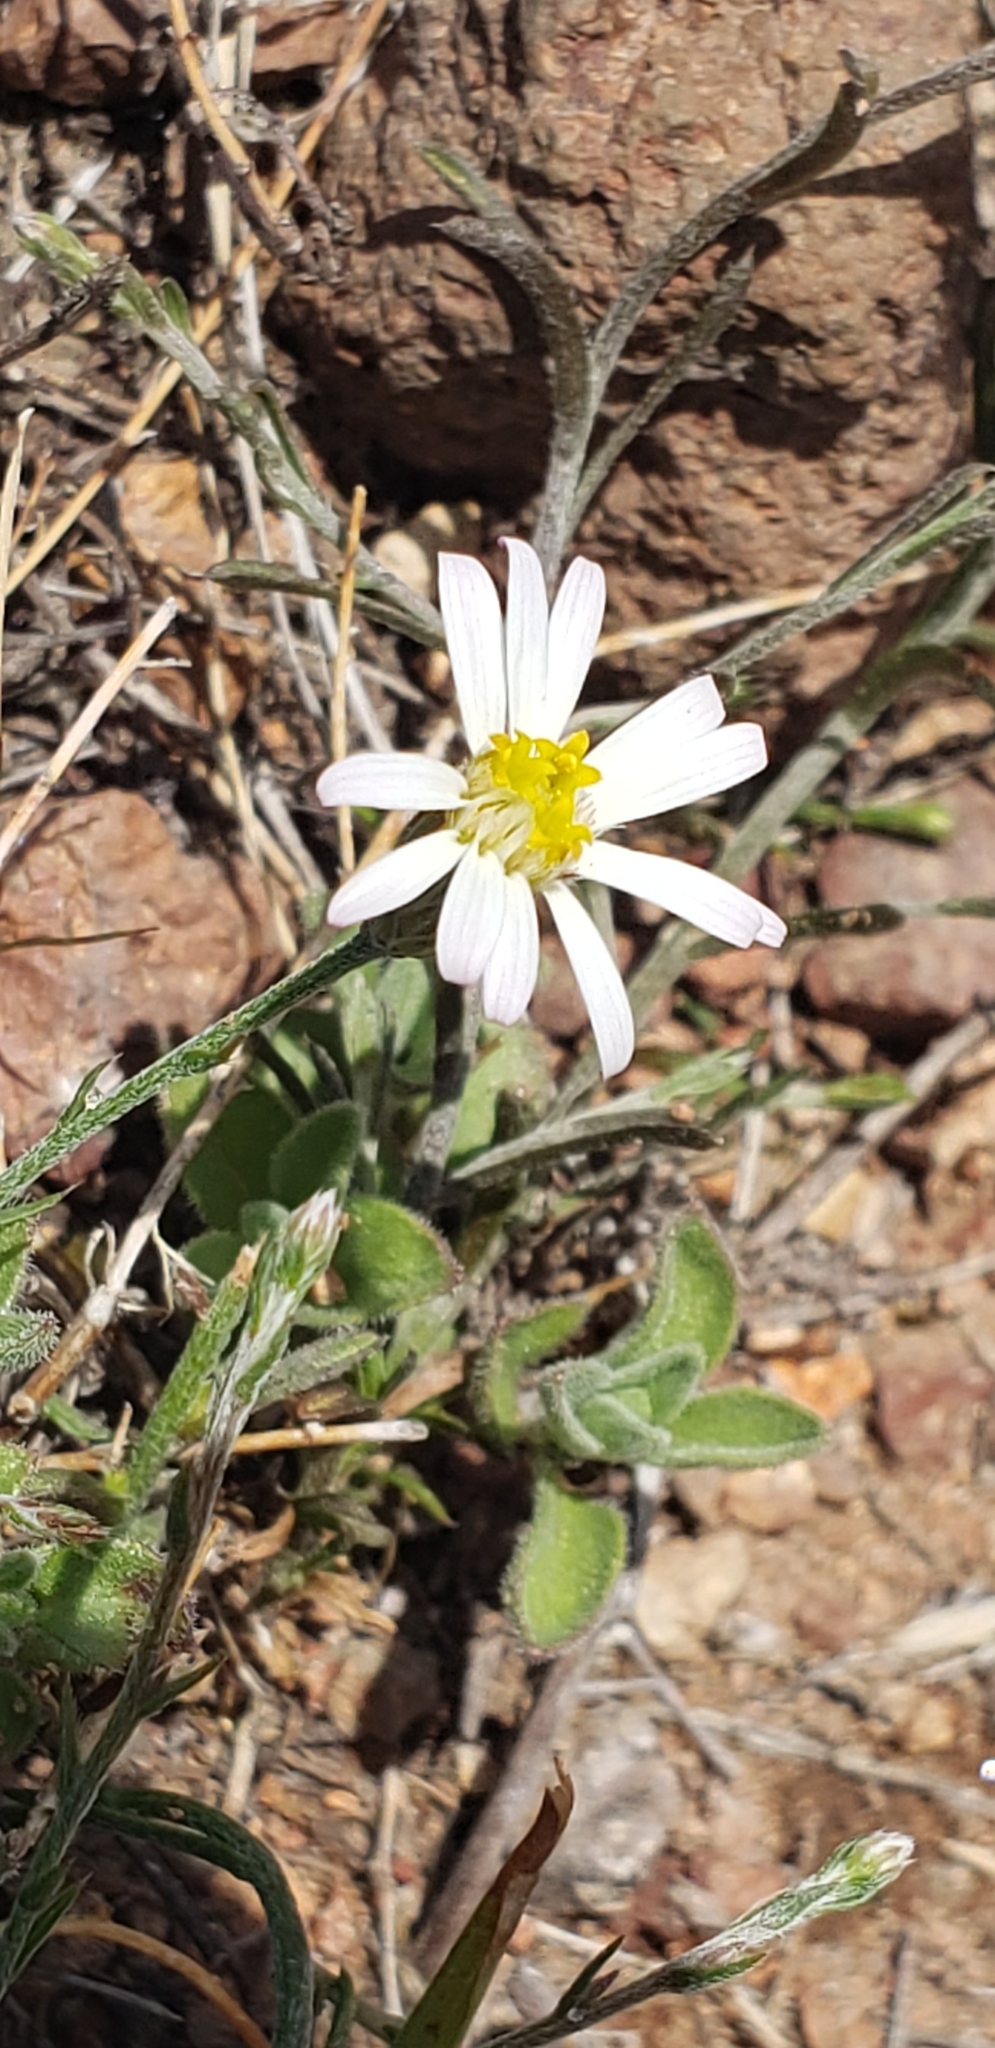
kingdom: Plantae
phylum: Tracheophyta
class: Magnoliopsida
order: Asterales
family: Asteraceae
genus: Chaetopappa
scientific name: Chaetopappa ericoides
